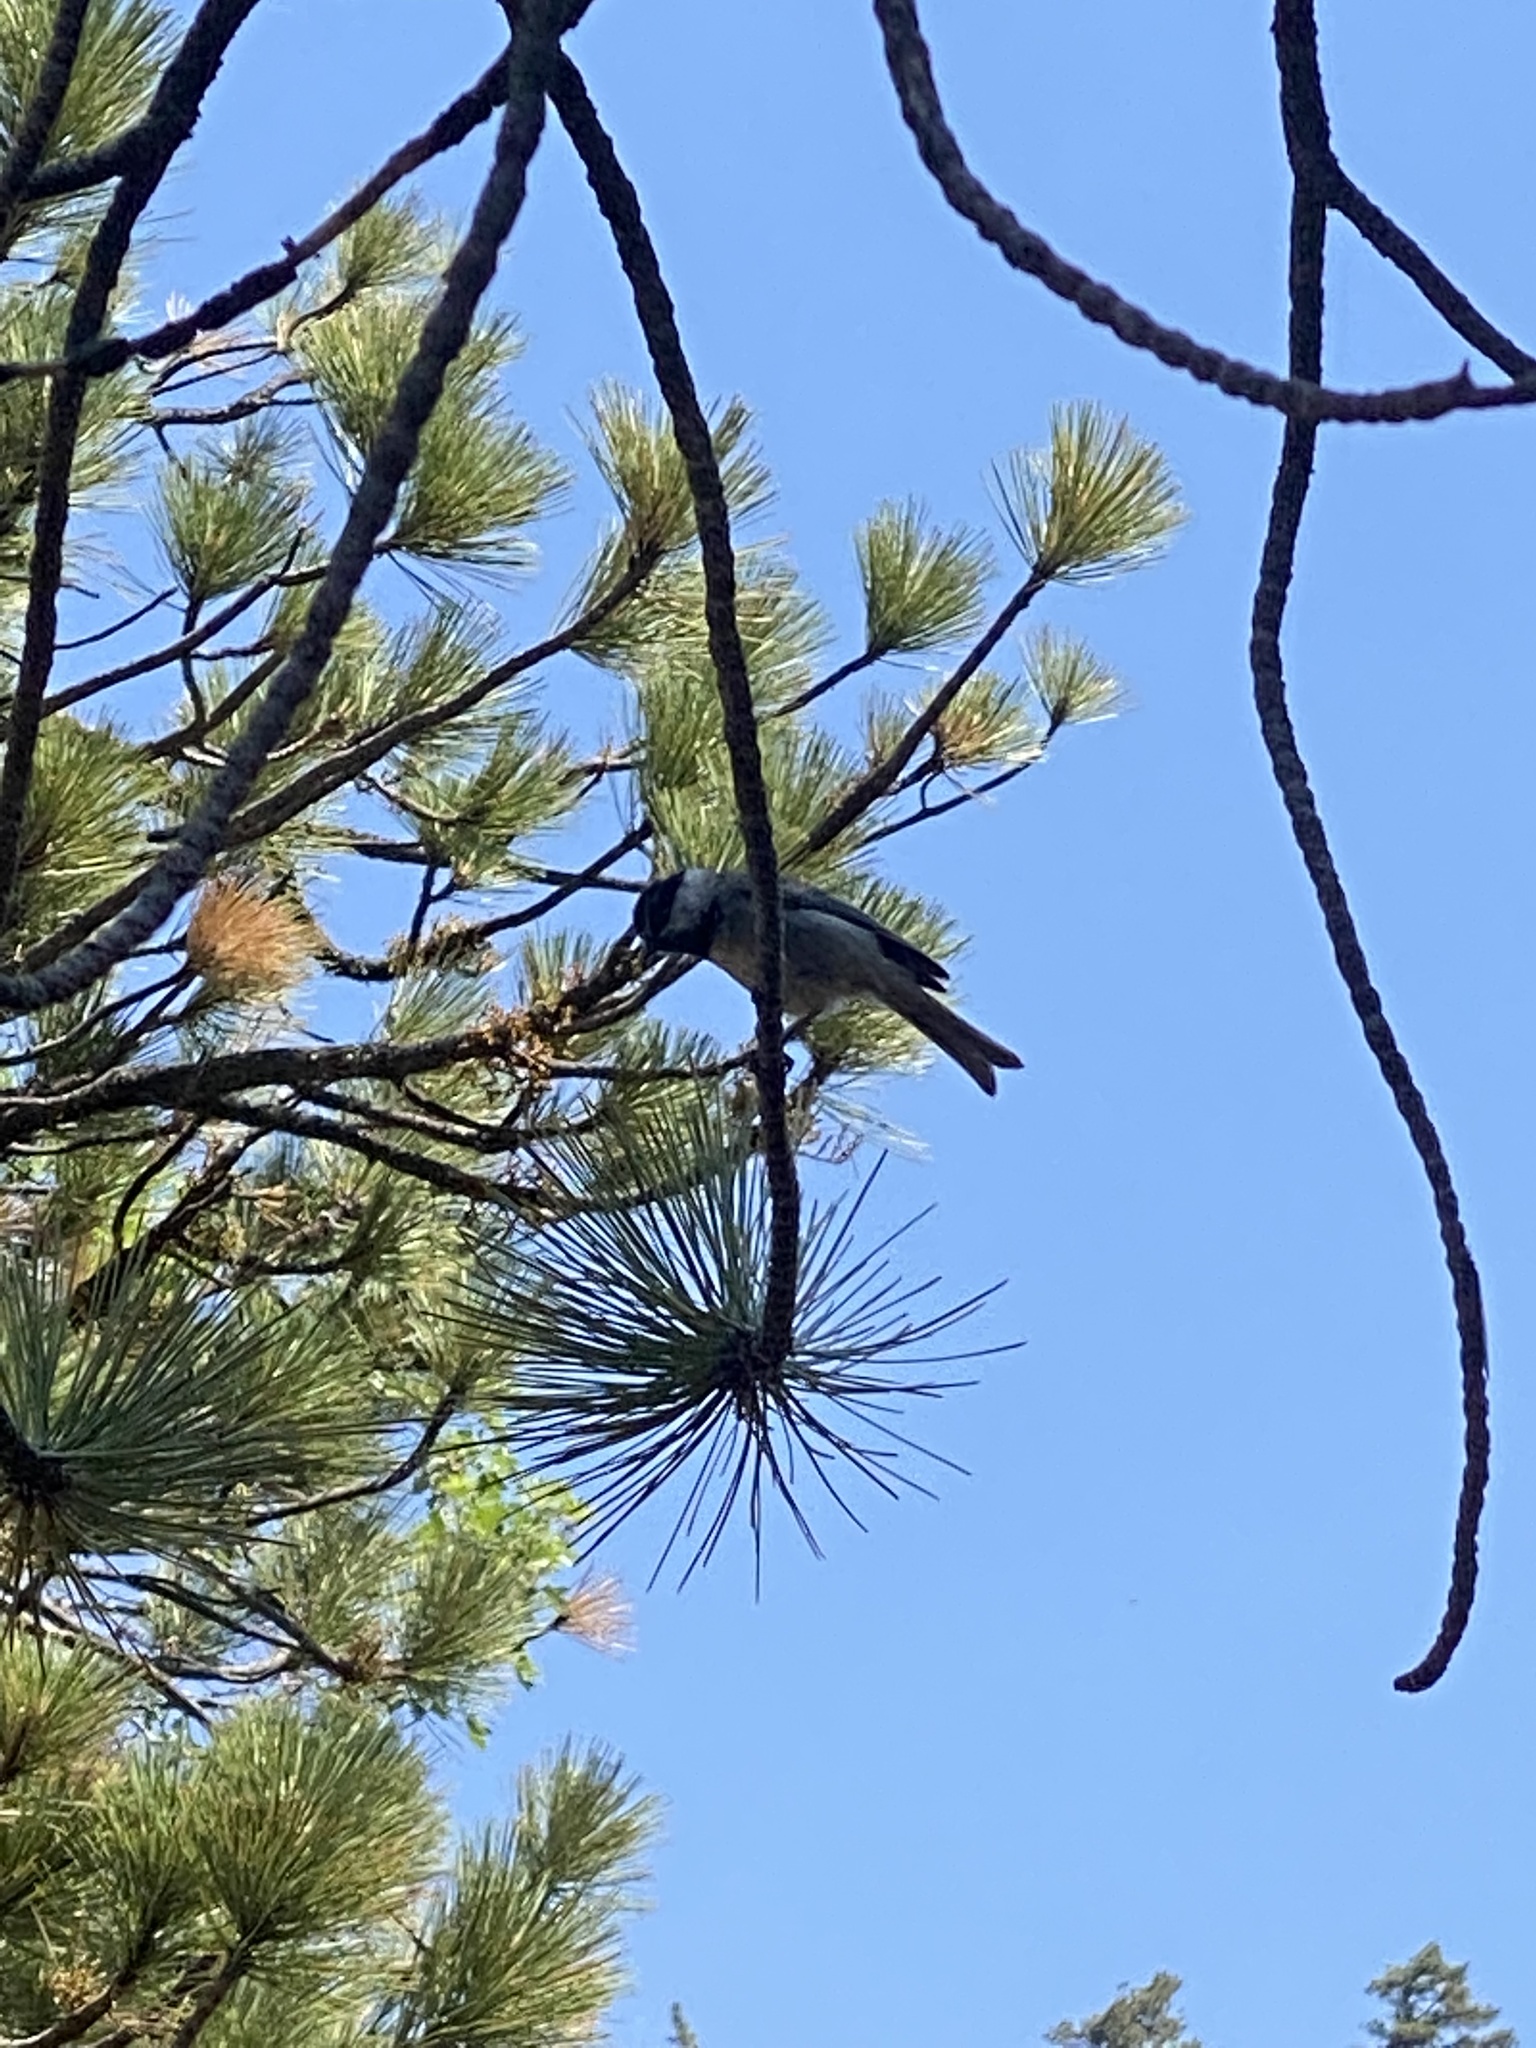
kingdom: Animalia
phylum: Chordata
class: Aves
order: Passeriformes
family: Paridae
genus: Poecile
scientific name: Poecile gambeli
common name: Mountain chickadee
